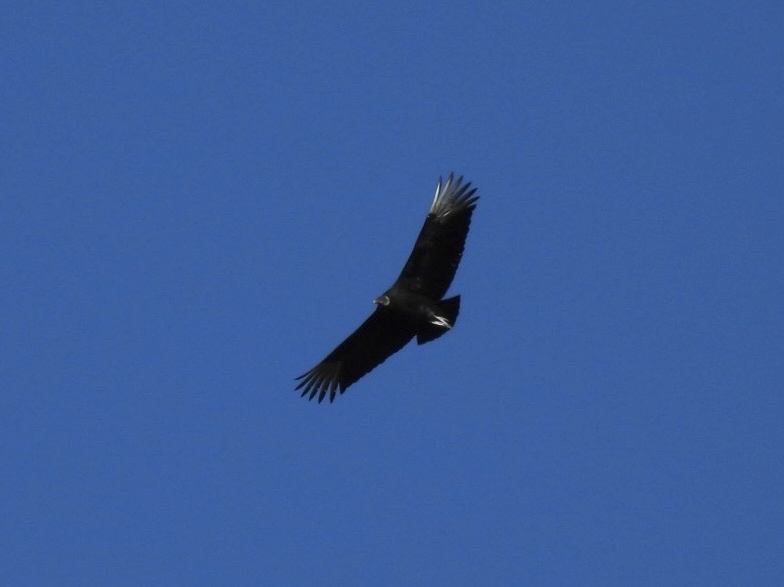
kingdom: Animalia
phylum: Chordata
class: Aves
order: Accipitriformes
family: Cathartidae
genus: Coragyps
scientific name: Coragyps atratus
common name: Black vulture
